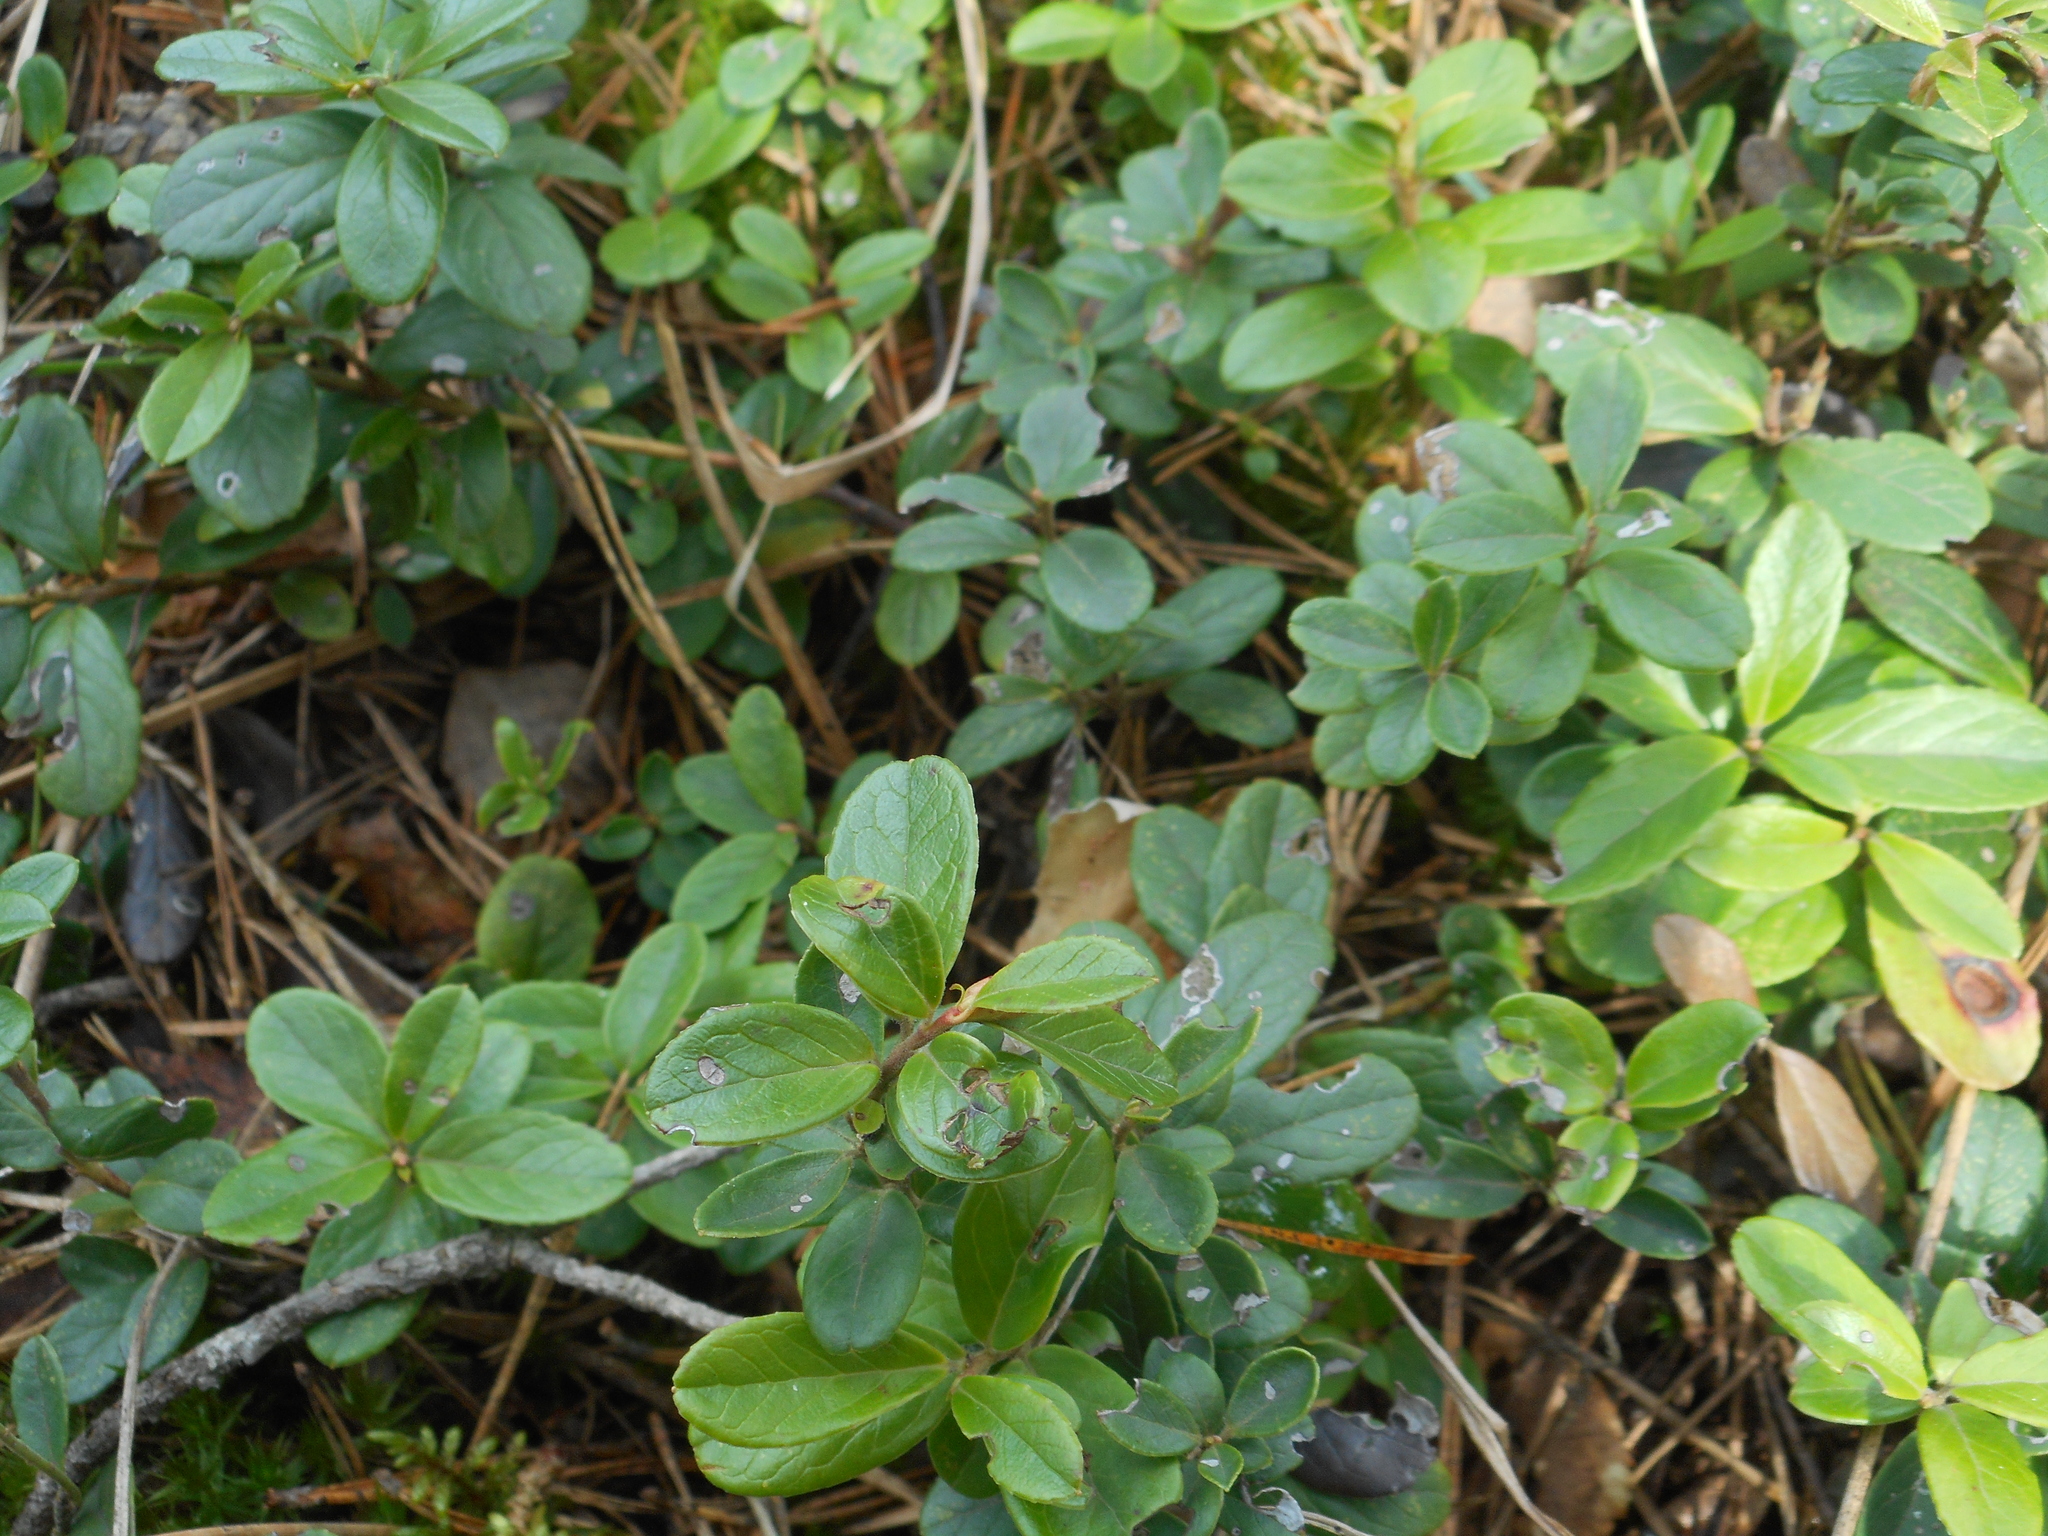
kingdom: Plantae
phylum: Tracheophyta
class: Magnoliopsida
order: Ericales
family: Ericaceae
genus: Vaccinium
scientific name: Vaccinium vitis-idaea
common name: Cowberry
